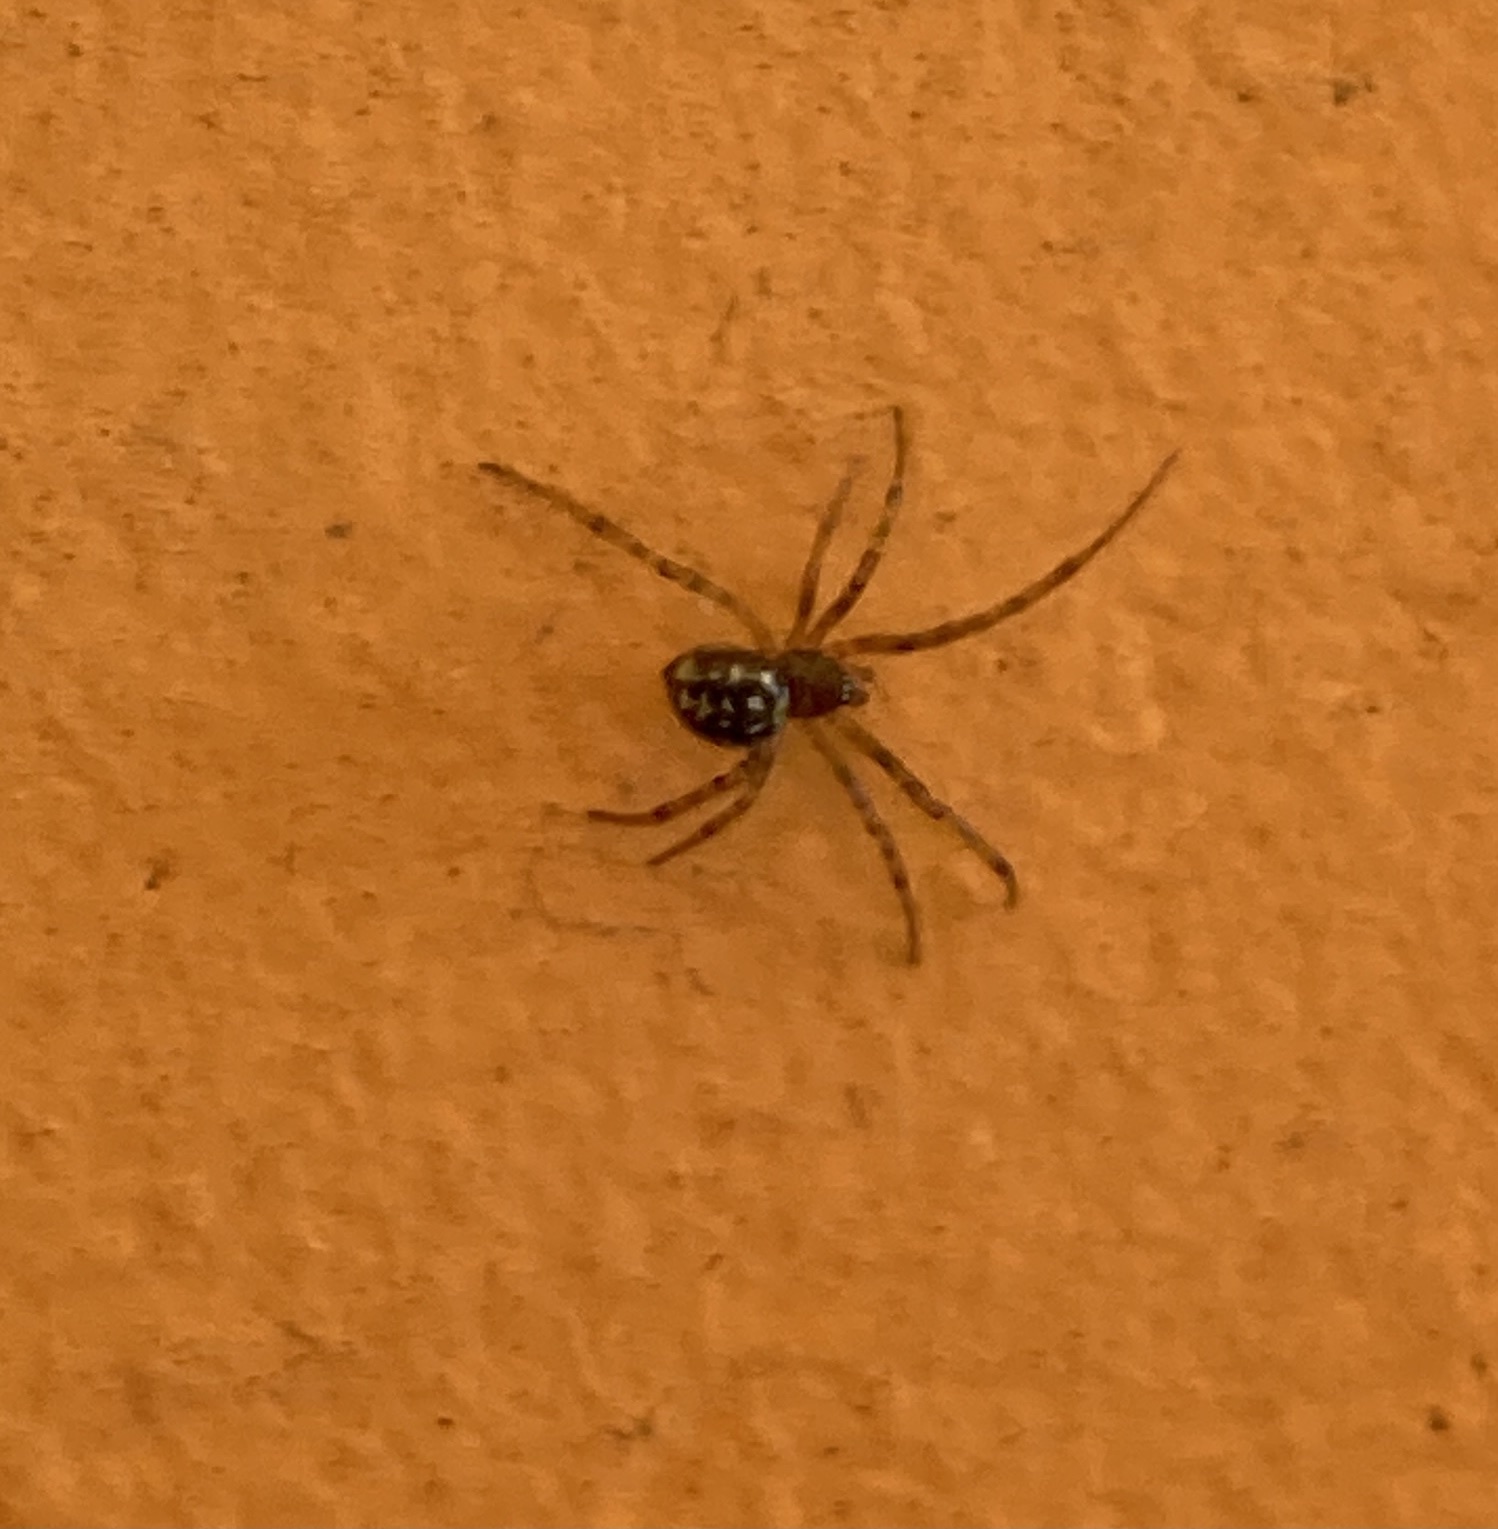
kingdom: Animalia
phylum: Arthropoda
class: Arachnida
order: Araneae
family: Theridiidae
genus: Steatoda
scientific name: Steatoda triangulosa
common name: Triangulate bud spider
